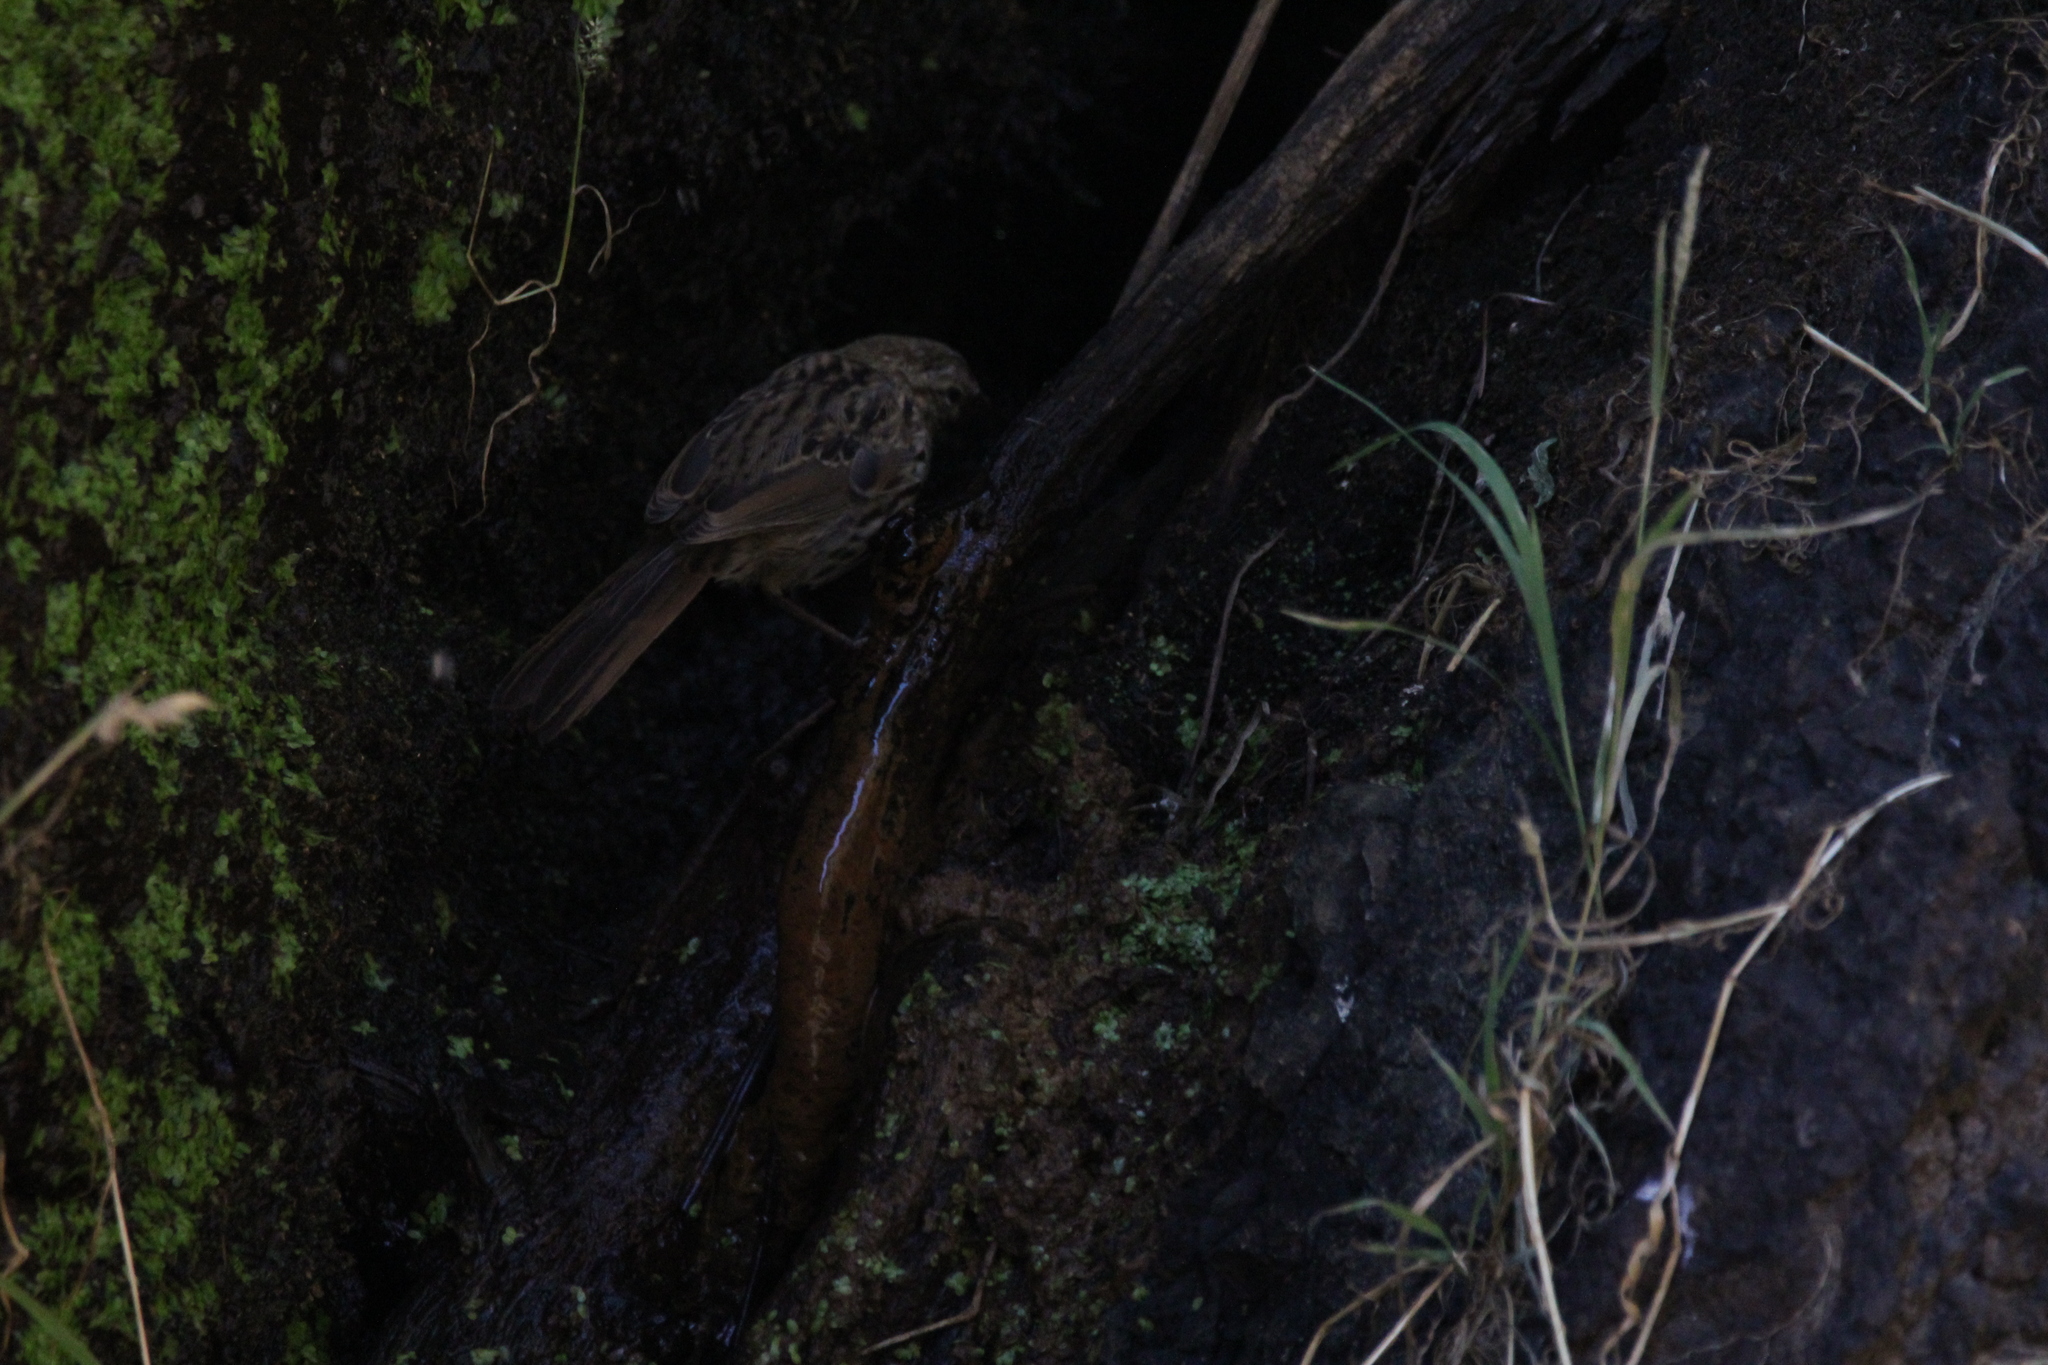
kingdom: Animalia
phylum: Chordata
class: Aves
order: Passeriformes
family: Passerellidae
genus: Melospiza
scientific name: Melospiza melodia
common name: Song sparrow
